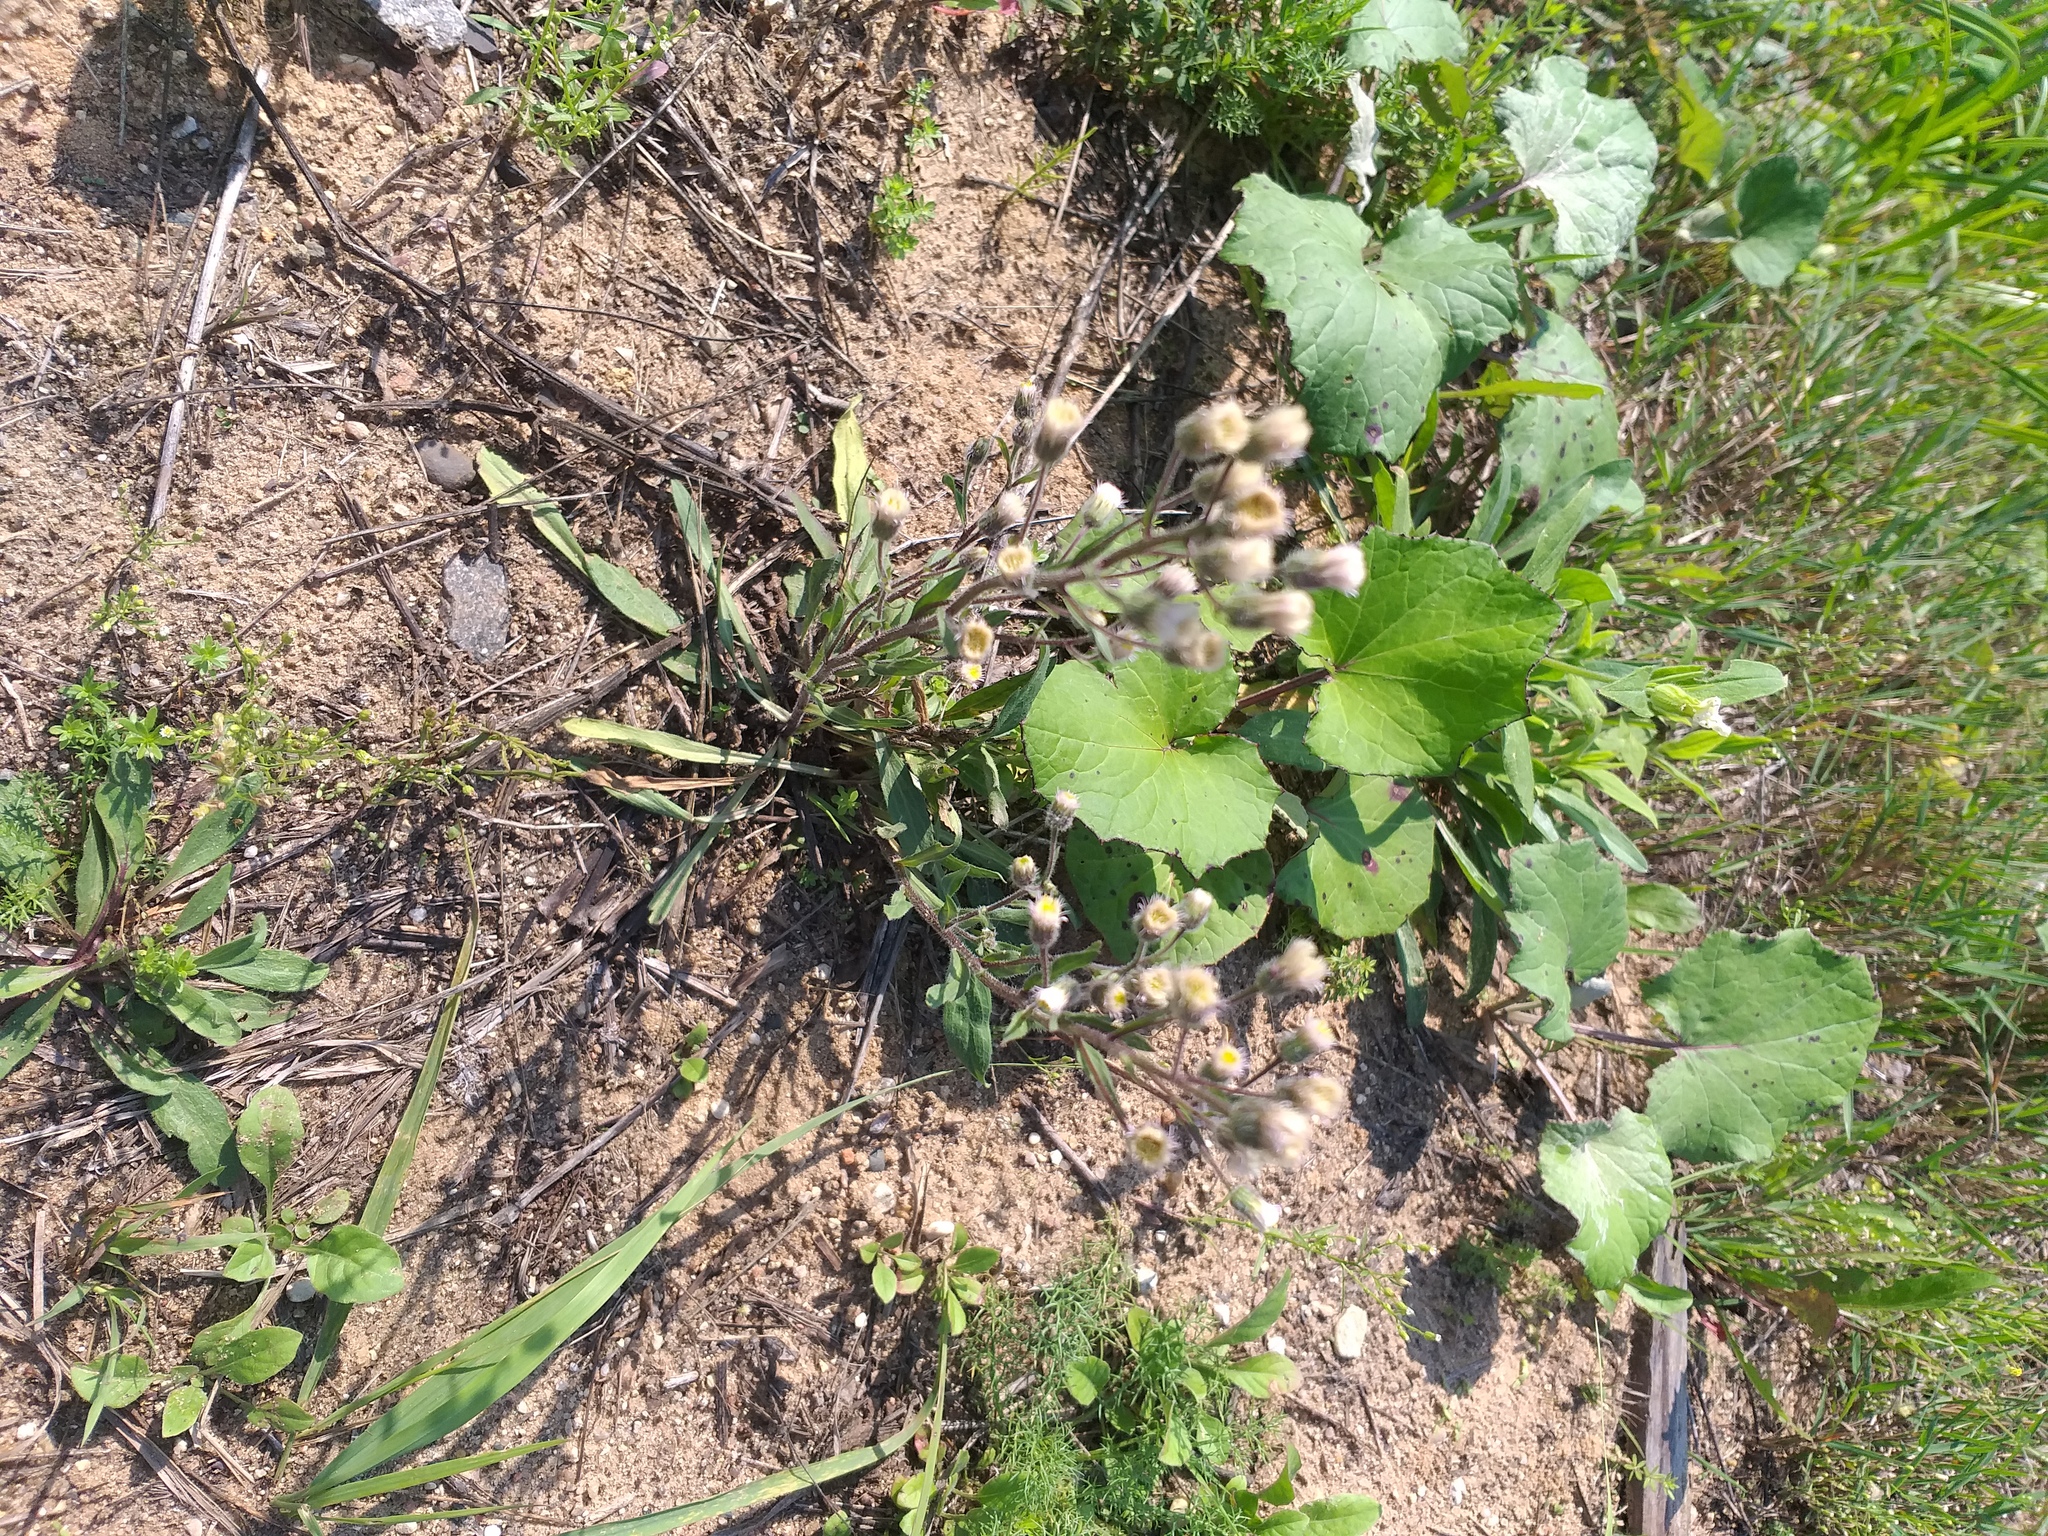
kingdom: Plantae
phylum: Tracheophyta
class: Magnoliopsida
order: Asterales
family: Asteraceae
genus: Erigeron
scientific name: Erigeron acris
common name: Blue fleabane
